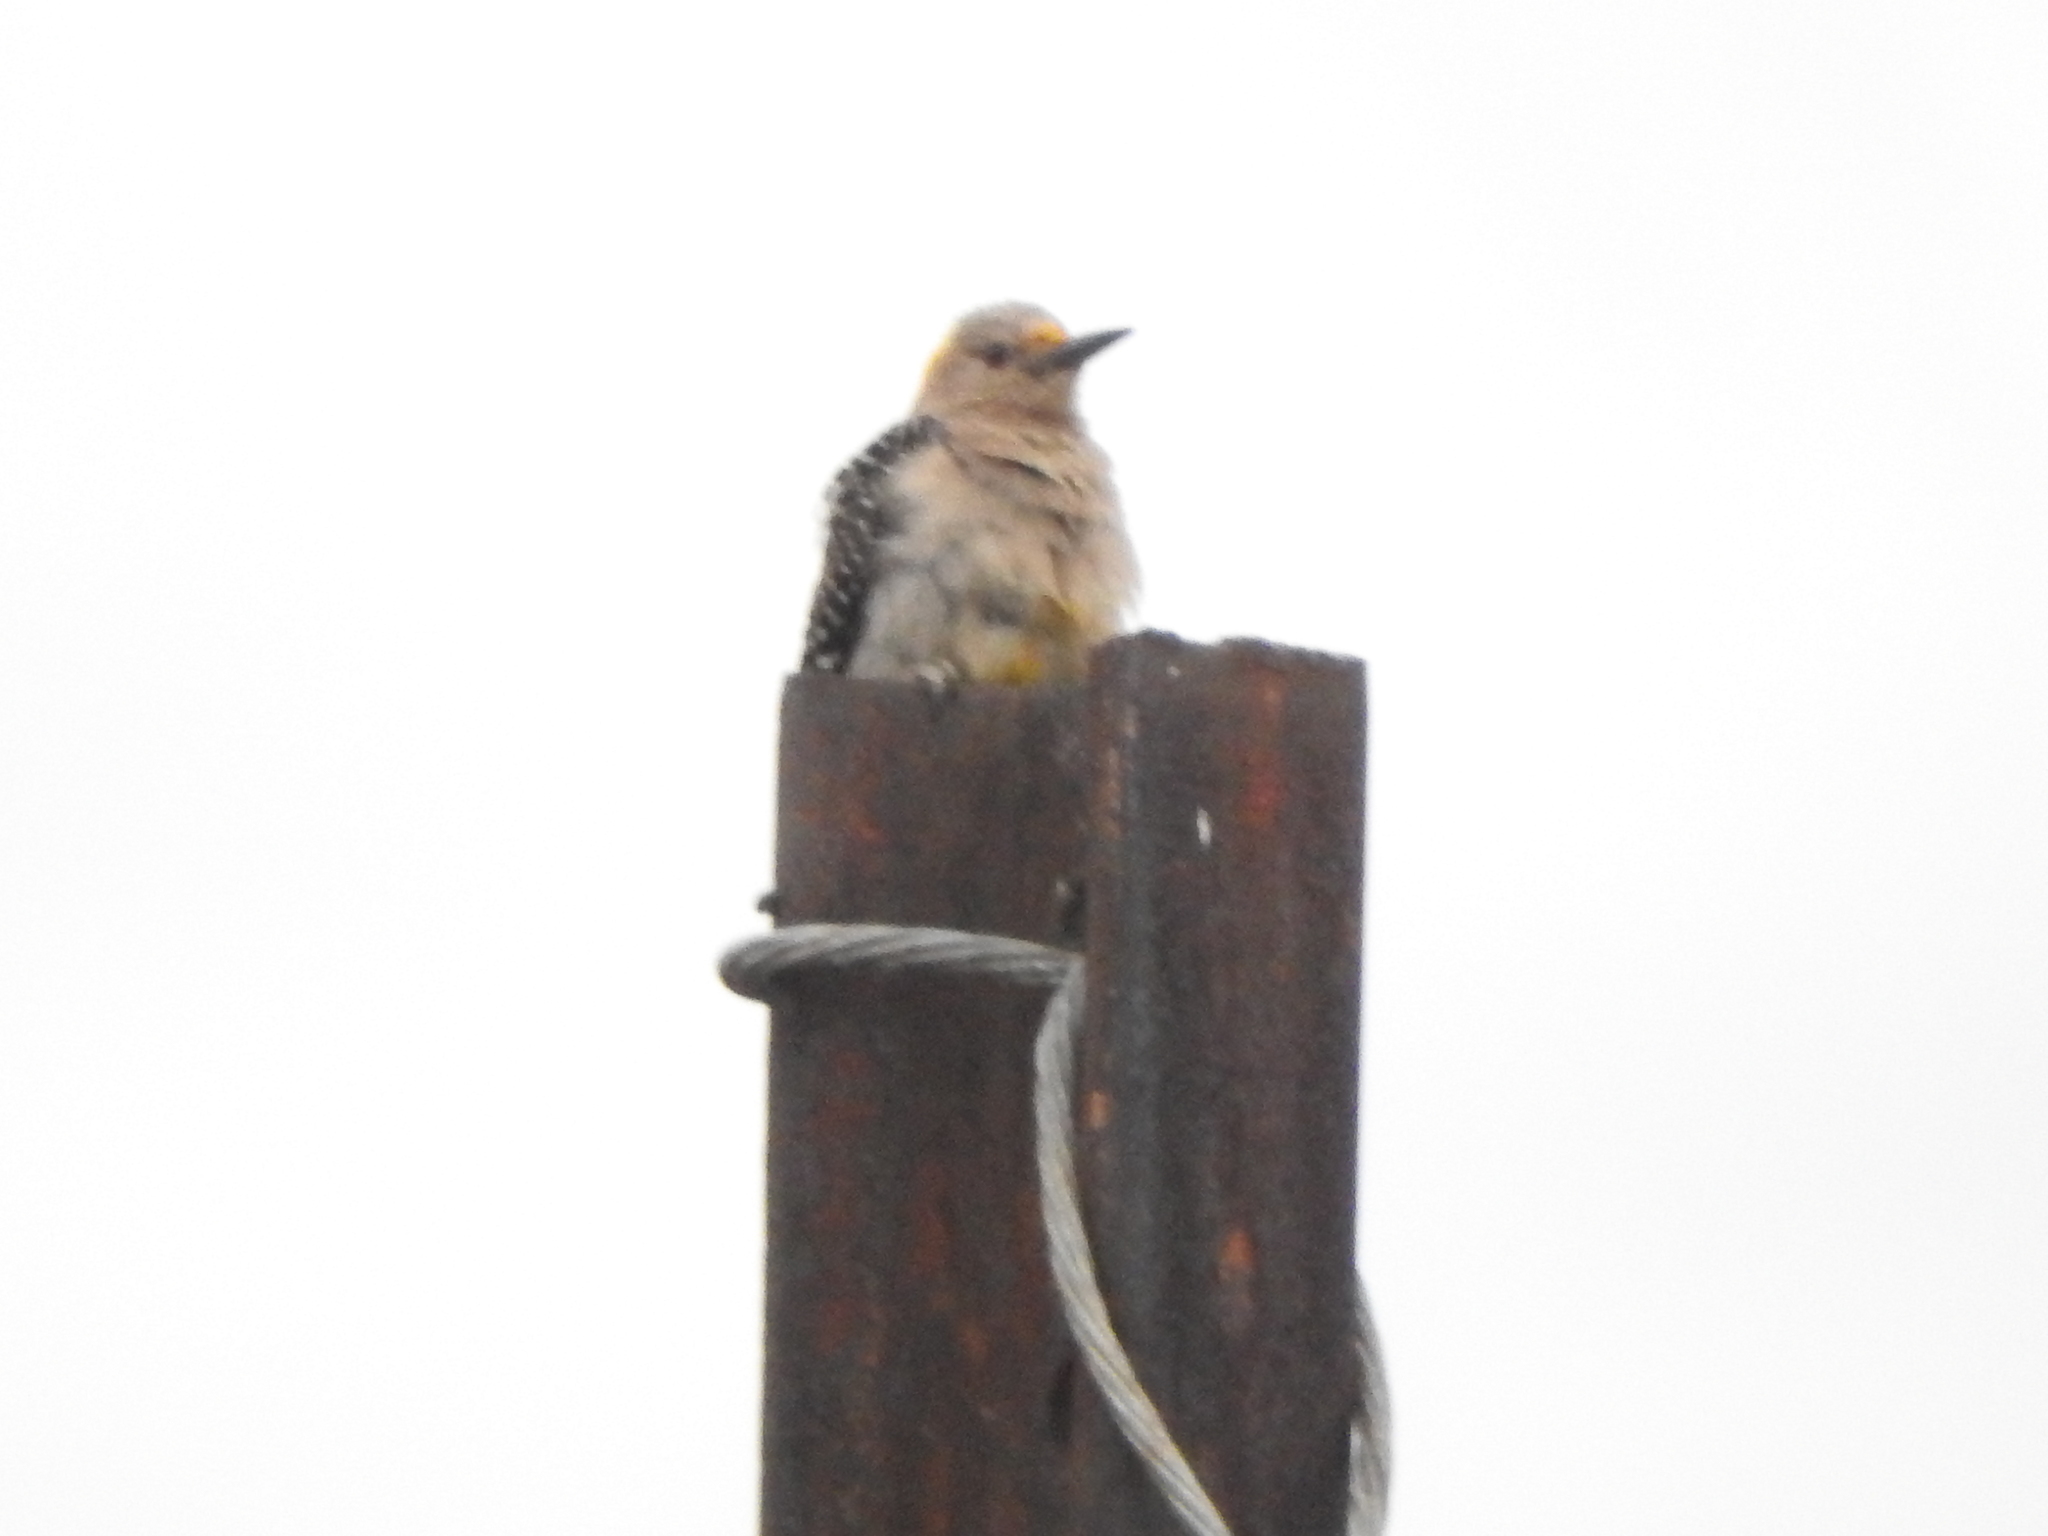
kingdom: Animalia
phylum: Chordata
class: Aves
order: Piciformes
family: Picidae
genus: Melanerpes
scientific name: Melanerpes aurifrons
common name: Golden-fronted woodpecker
